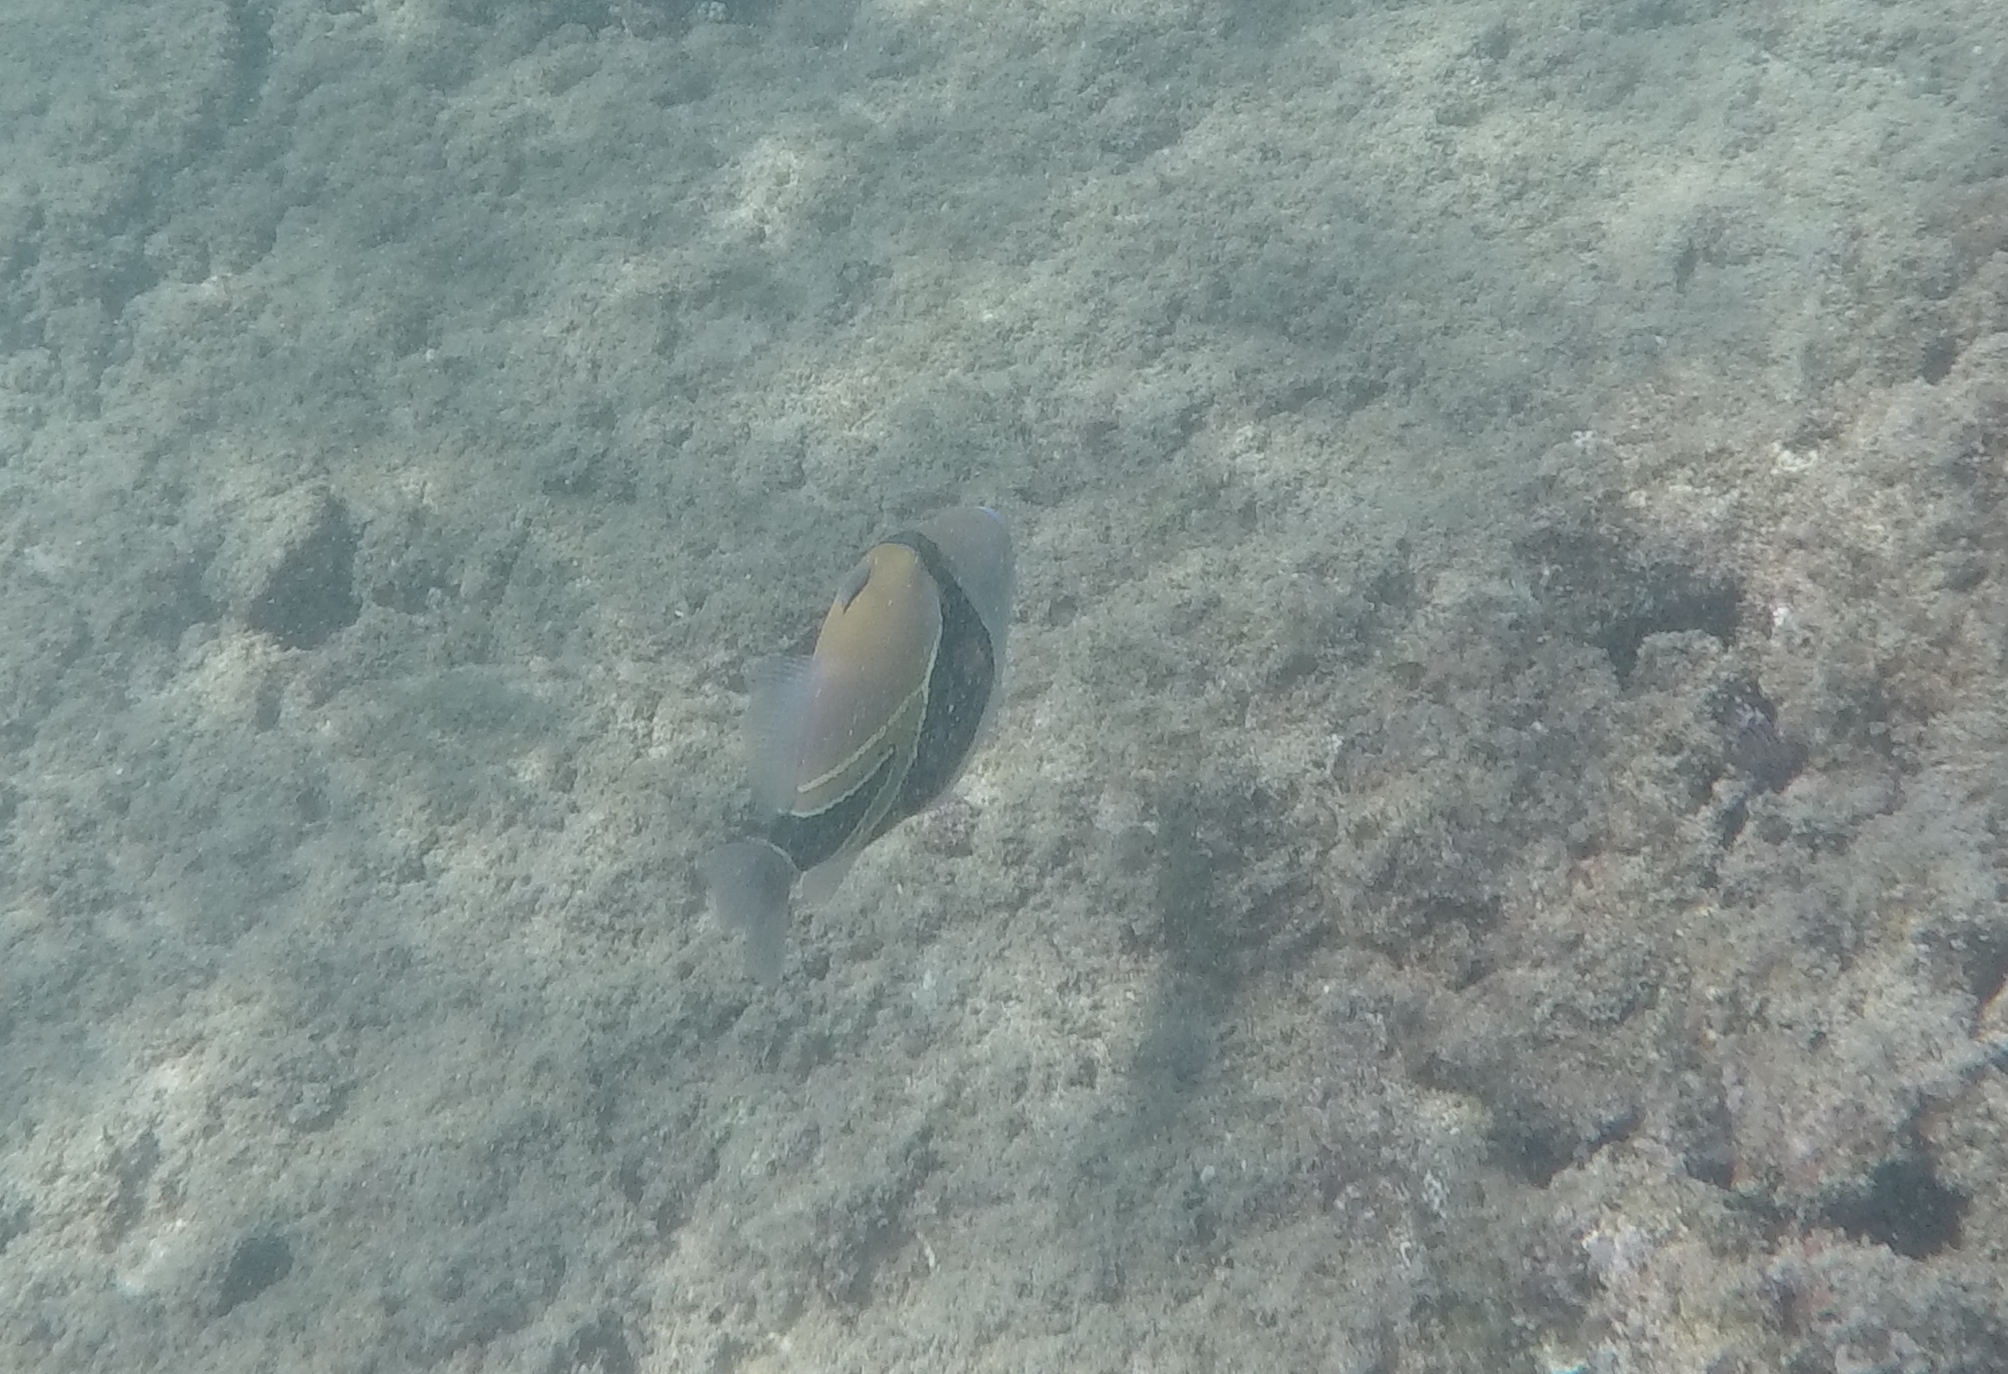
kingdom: Animalia
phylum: Chordata
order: Tetraodontiformes
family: Balistidae
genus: Rhinecanthus
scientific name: Rhinecanthus rectangulus
